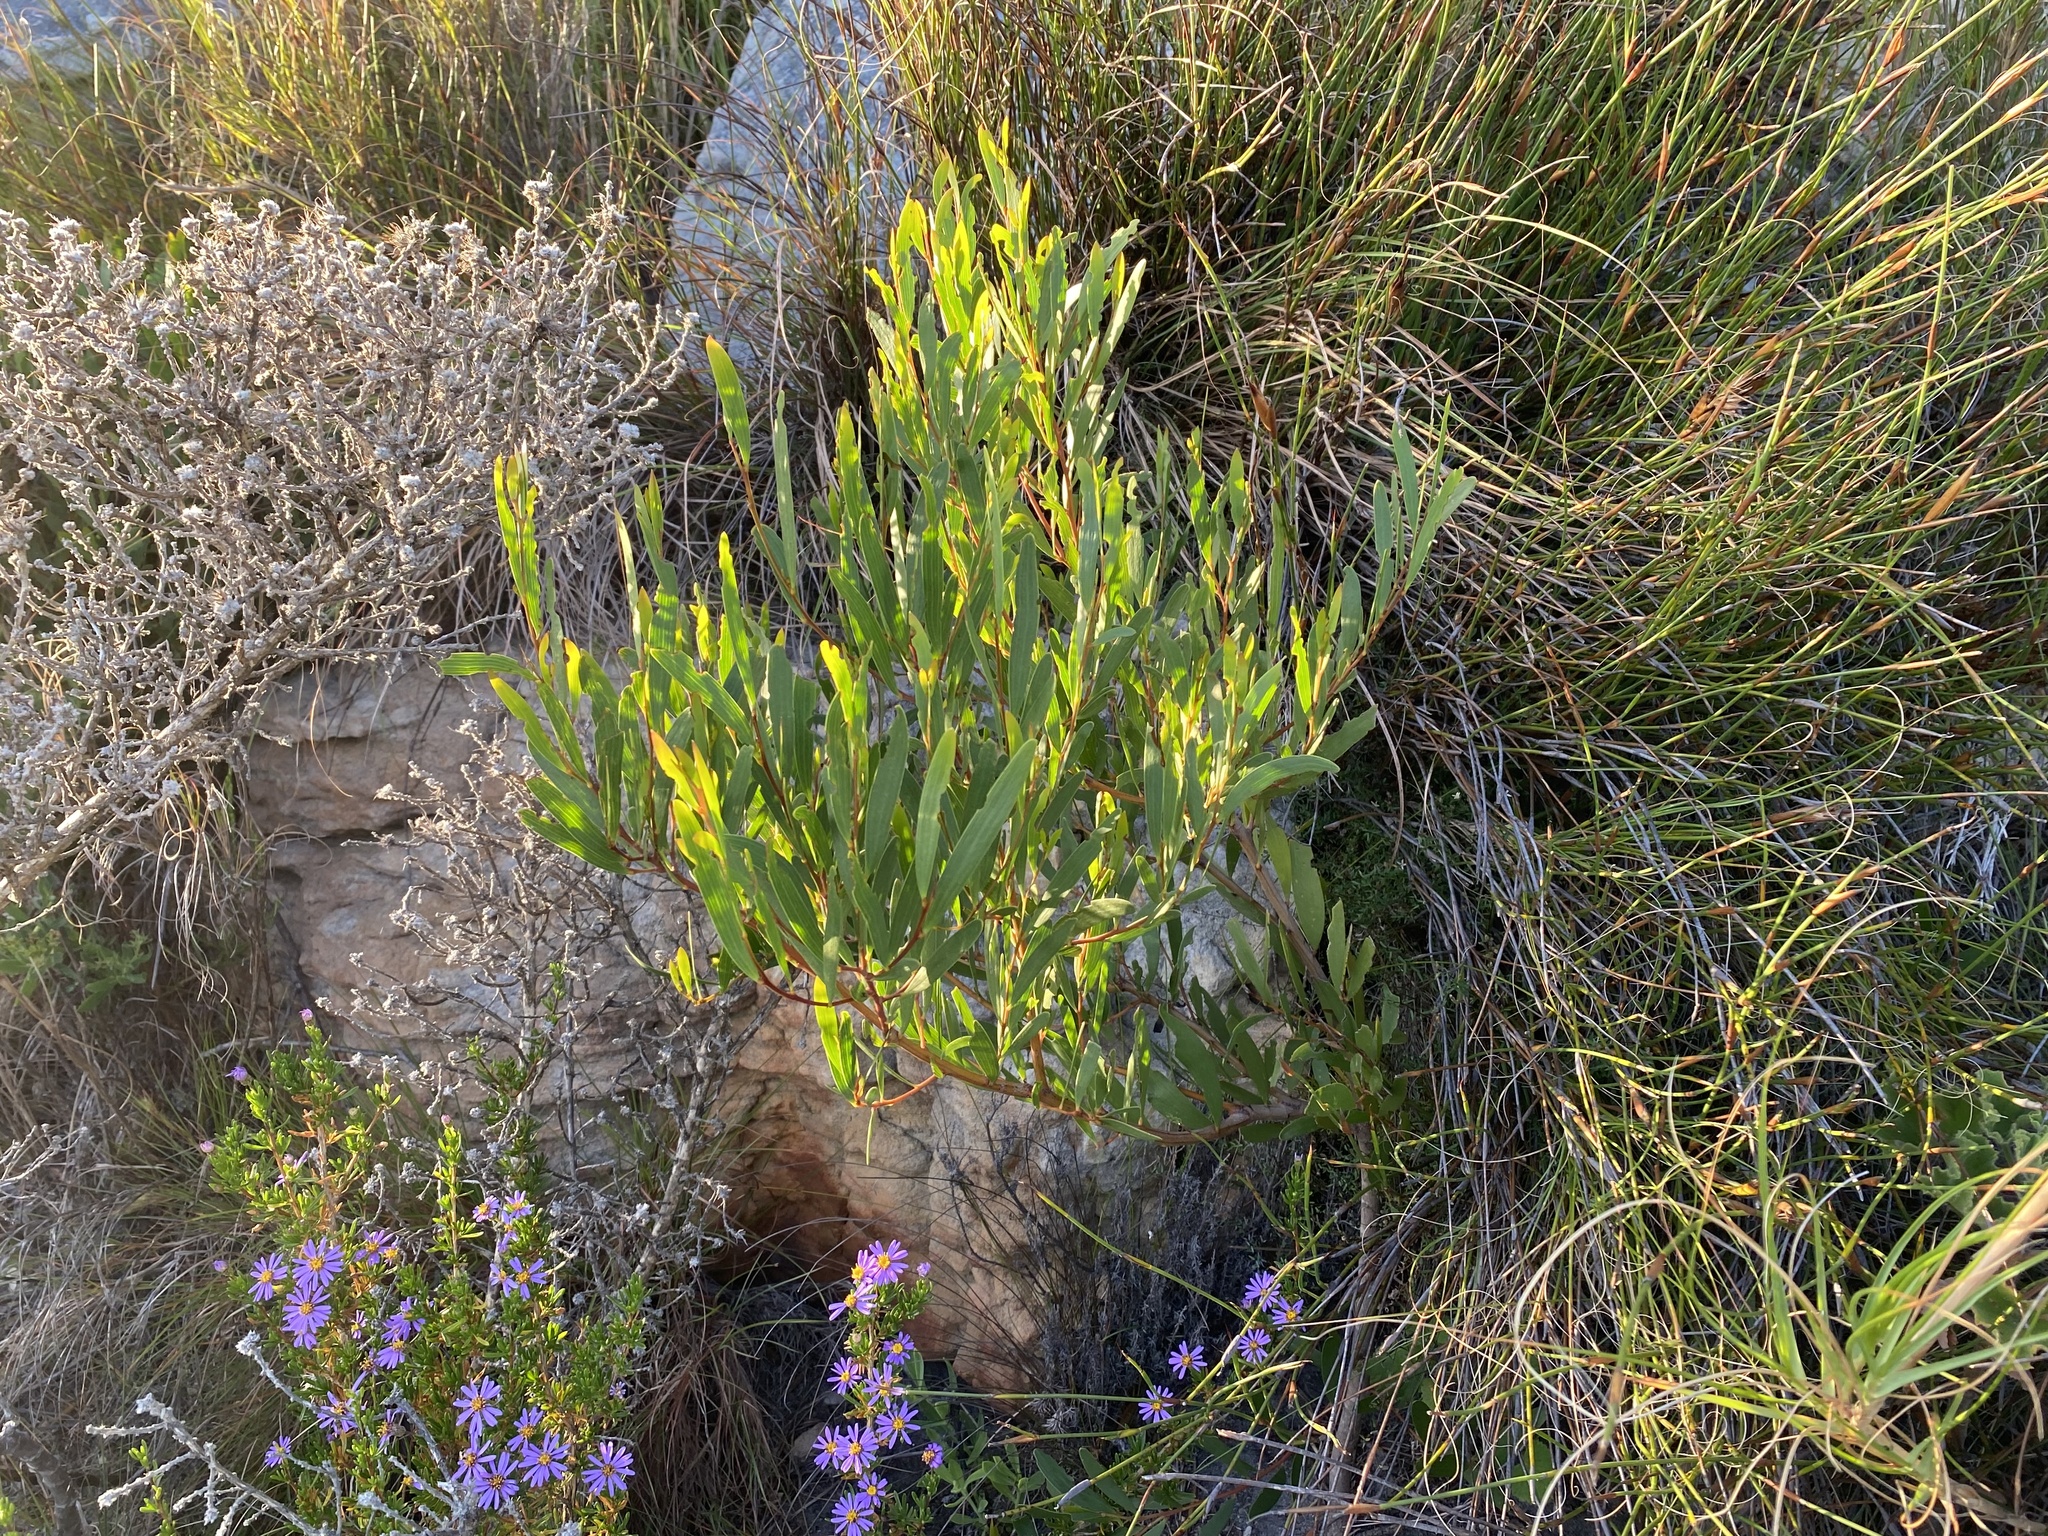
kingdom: Plantae
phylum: Tracheophyta
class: Magnoliopsida
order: Fabales
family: Fabaceae
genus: Acacia
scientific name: Acacia cyclops
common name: Coastal wattle
